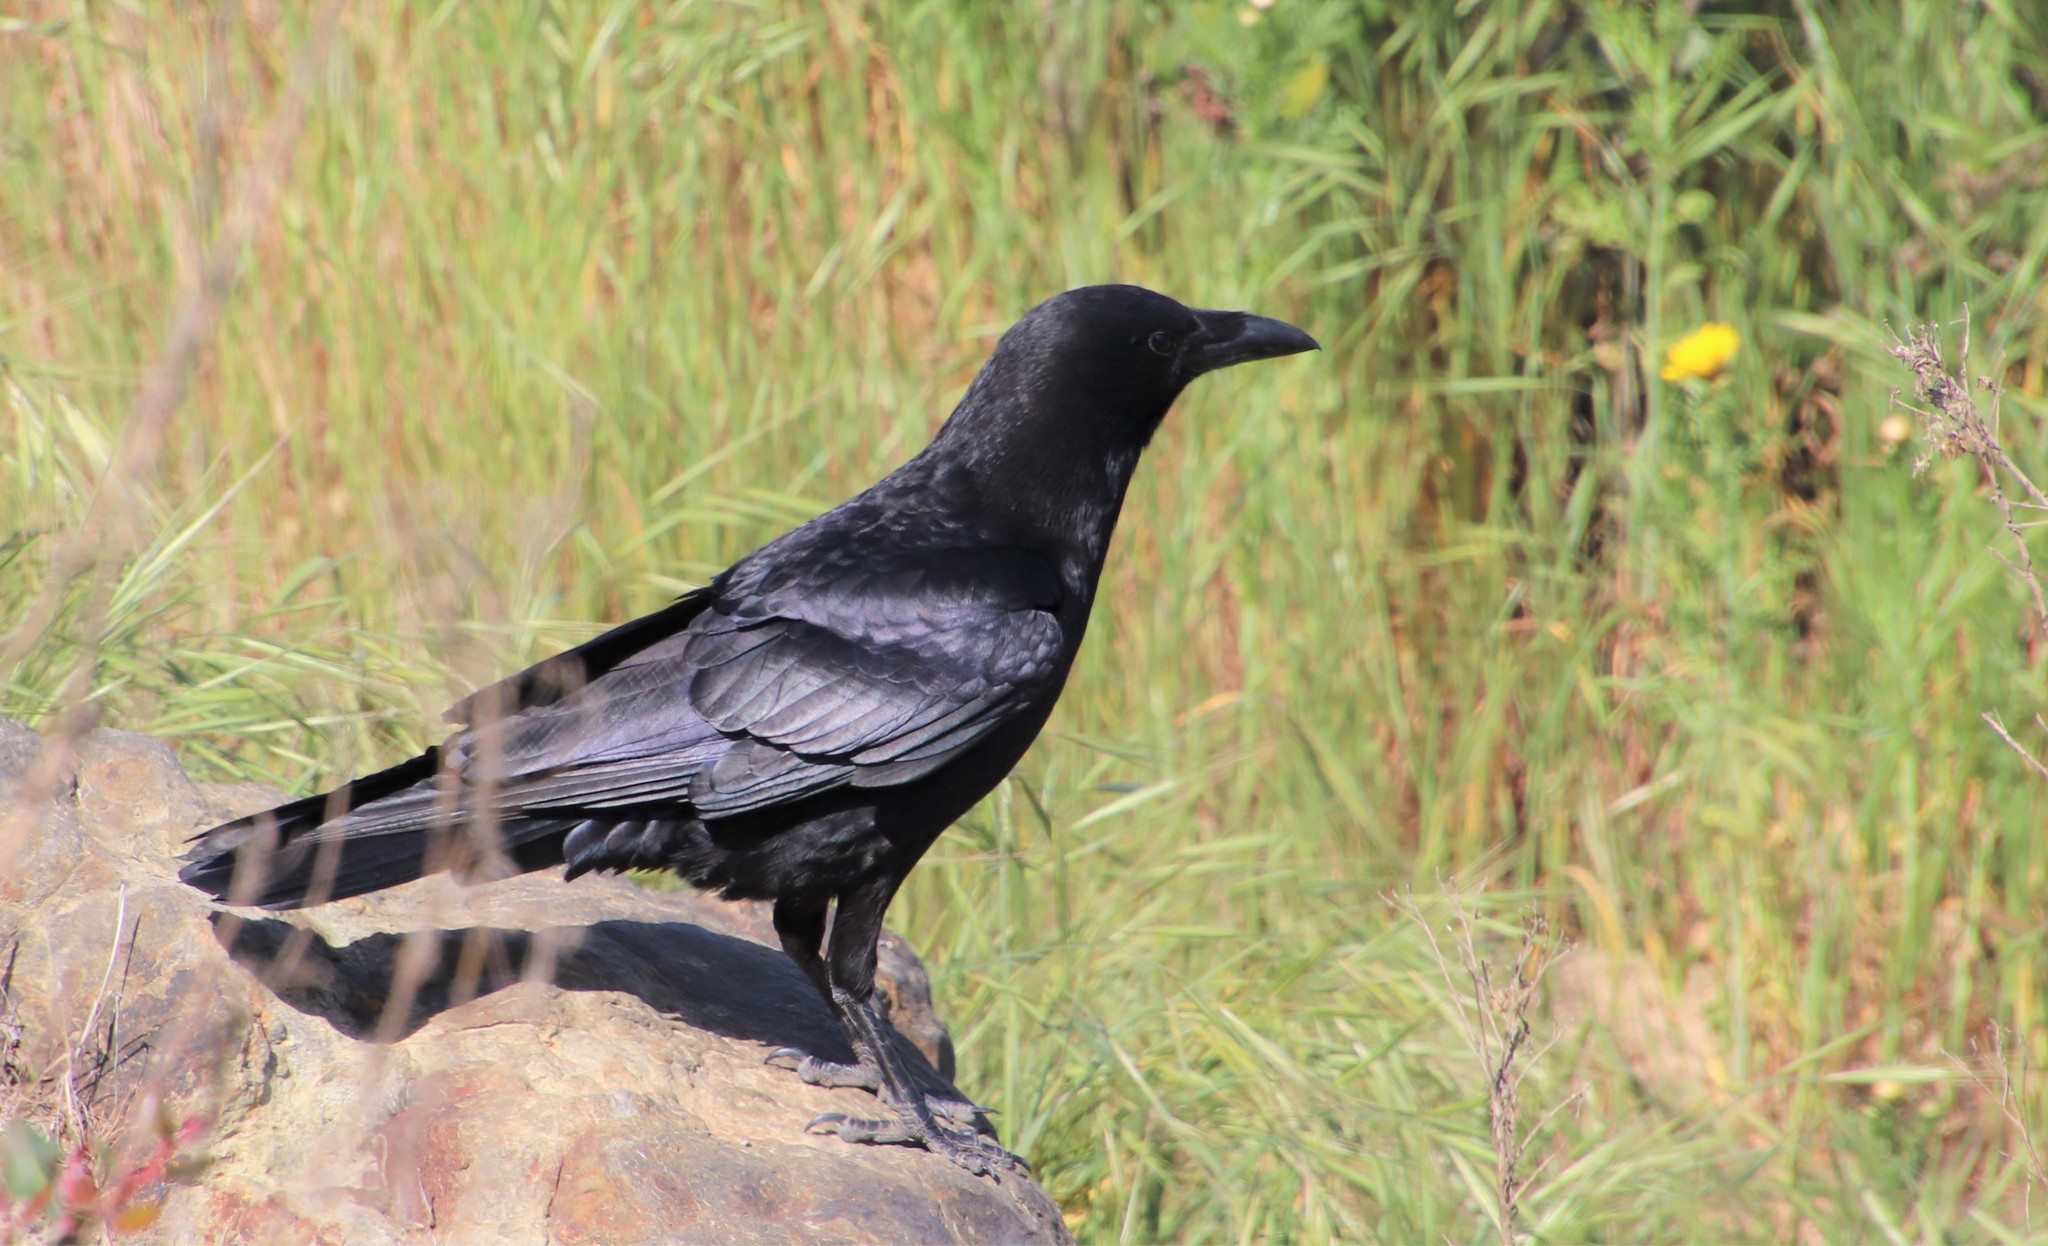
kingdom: Animalia
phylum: Chordata
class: Aves
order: Passeriformes
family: Corvidae
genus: Corvus
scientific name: Corvus brachyrhynchos
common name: American crow
